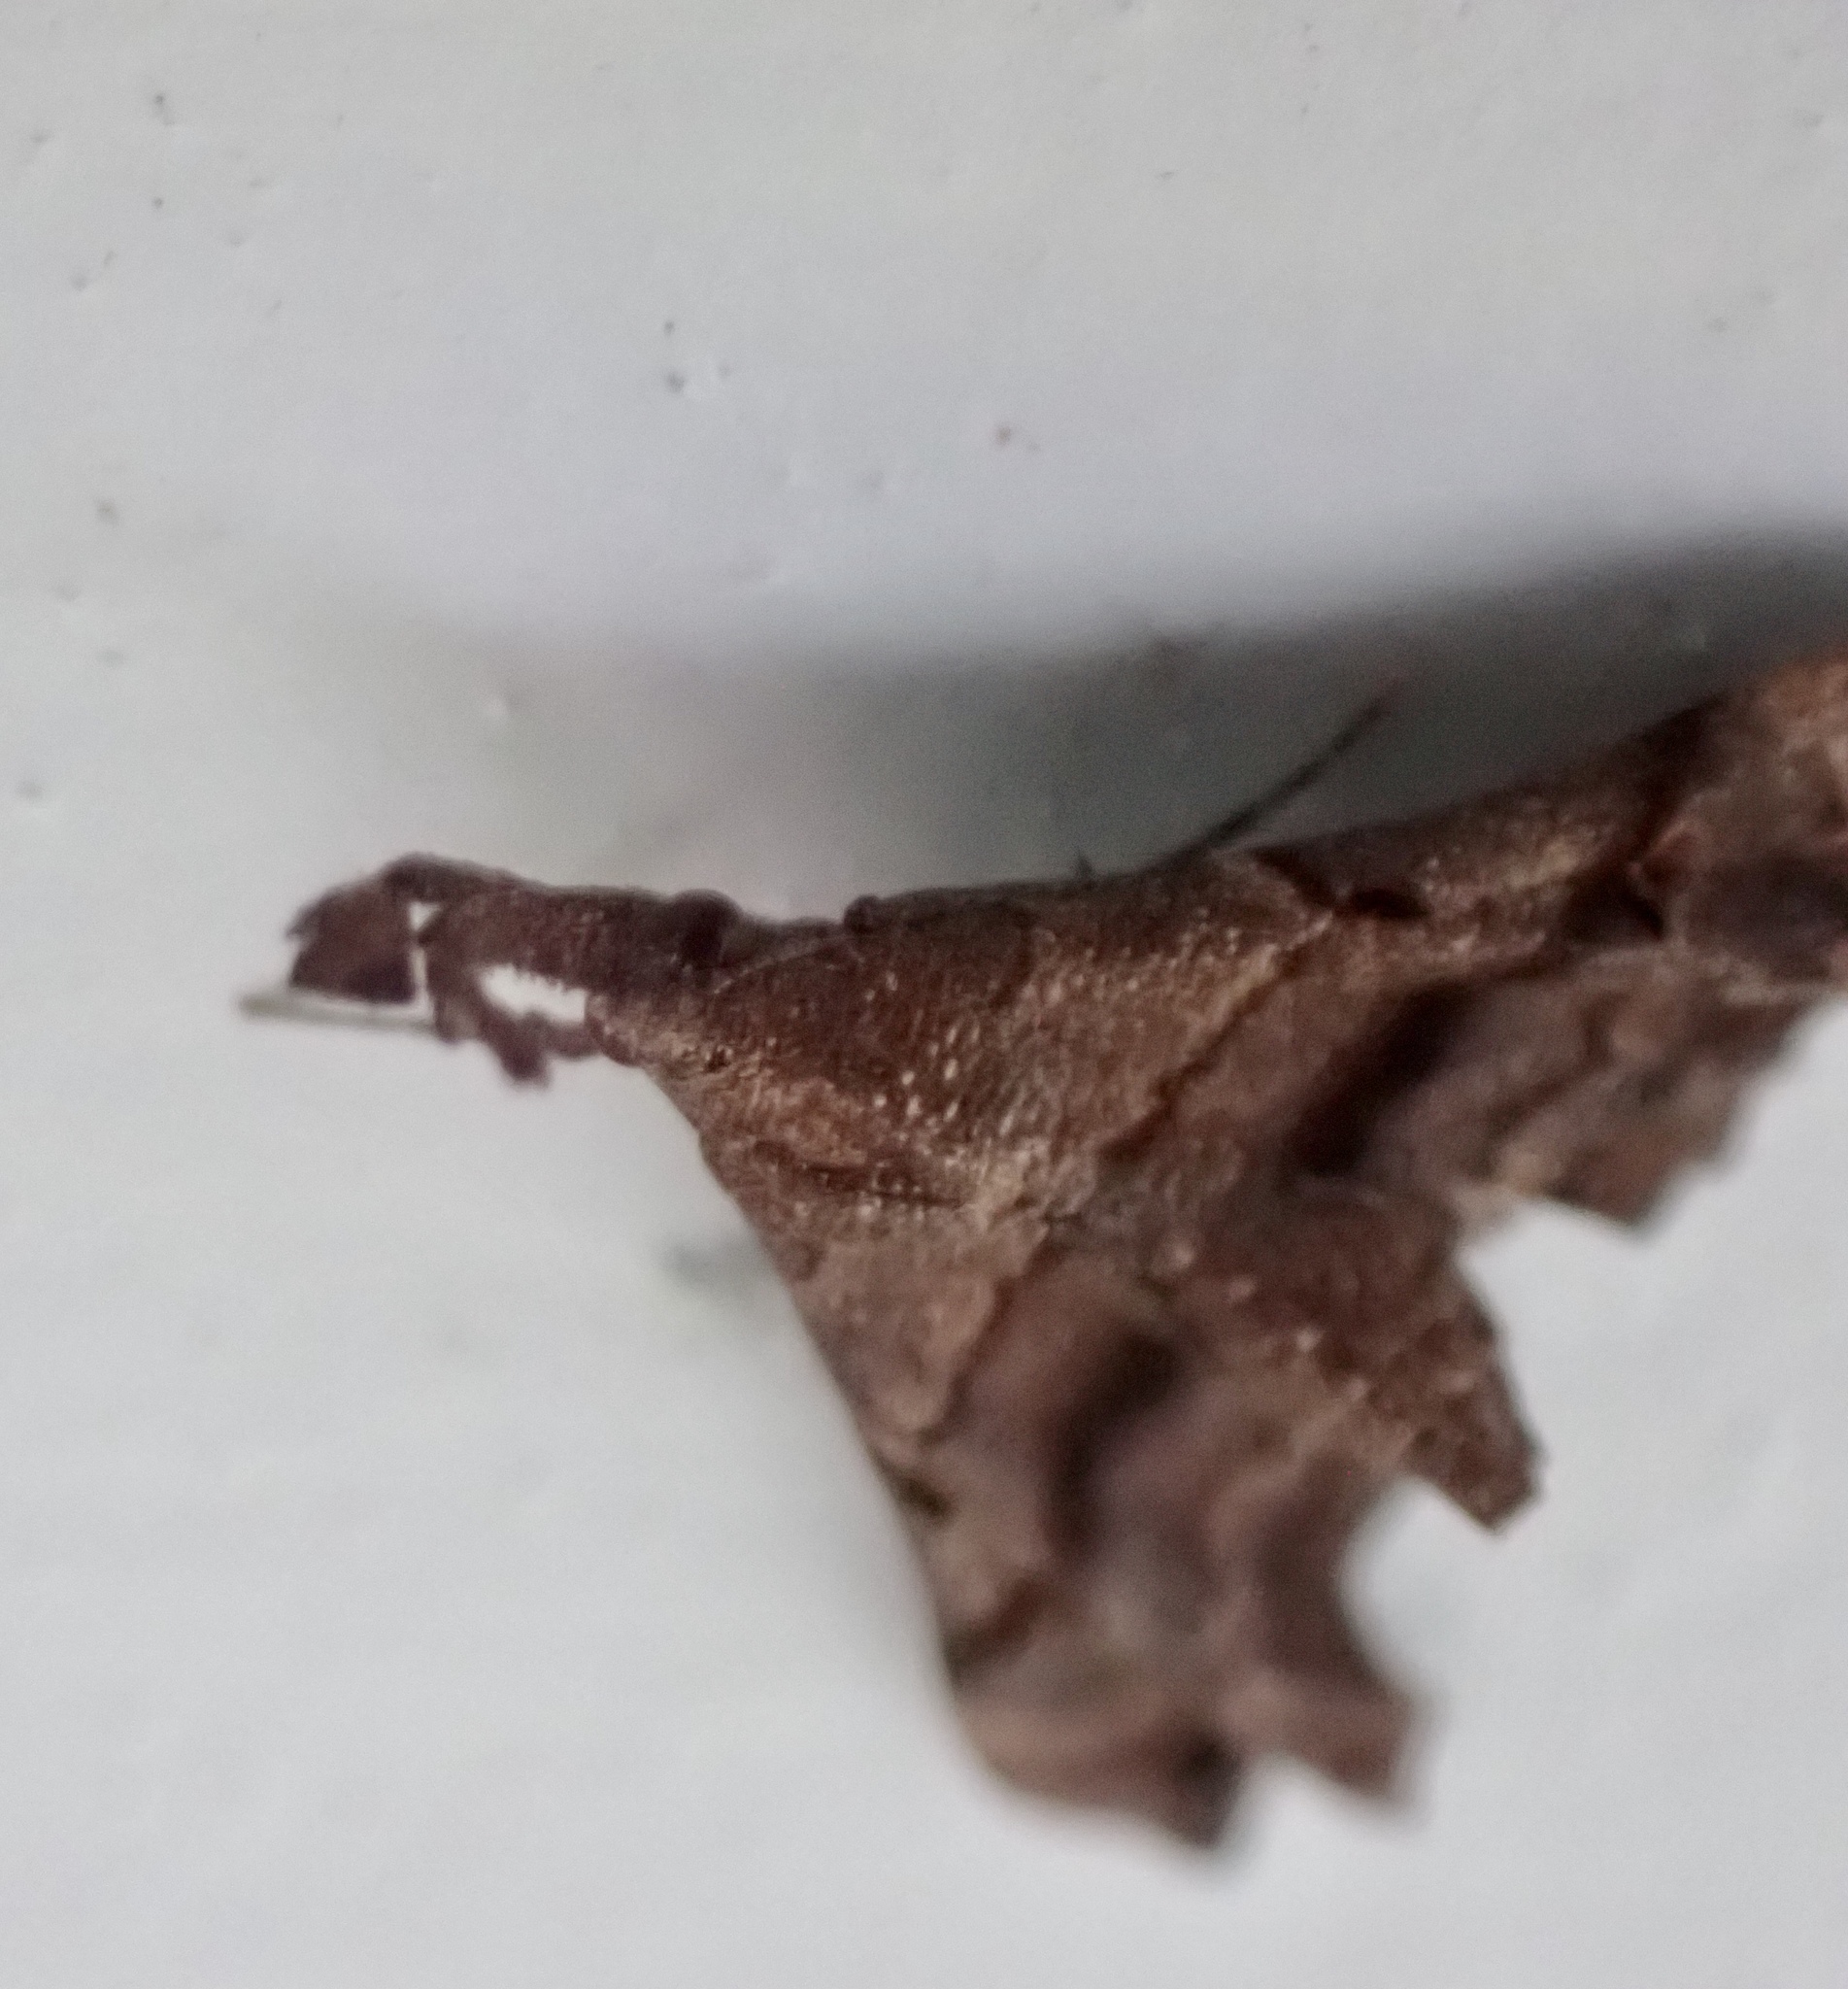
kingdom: Animalia
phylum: Arthropoda
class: Insecta
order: Lepidoptera
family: Erebidae
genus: Palthis
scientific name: Palthis asopialis
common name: Faint-spotted palthis moth
